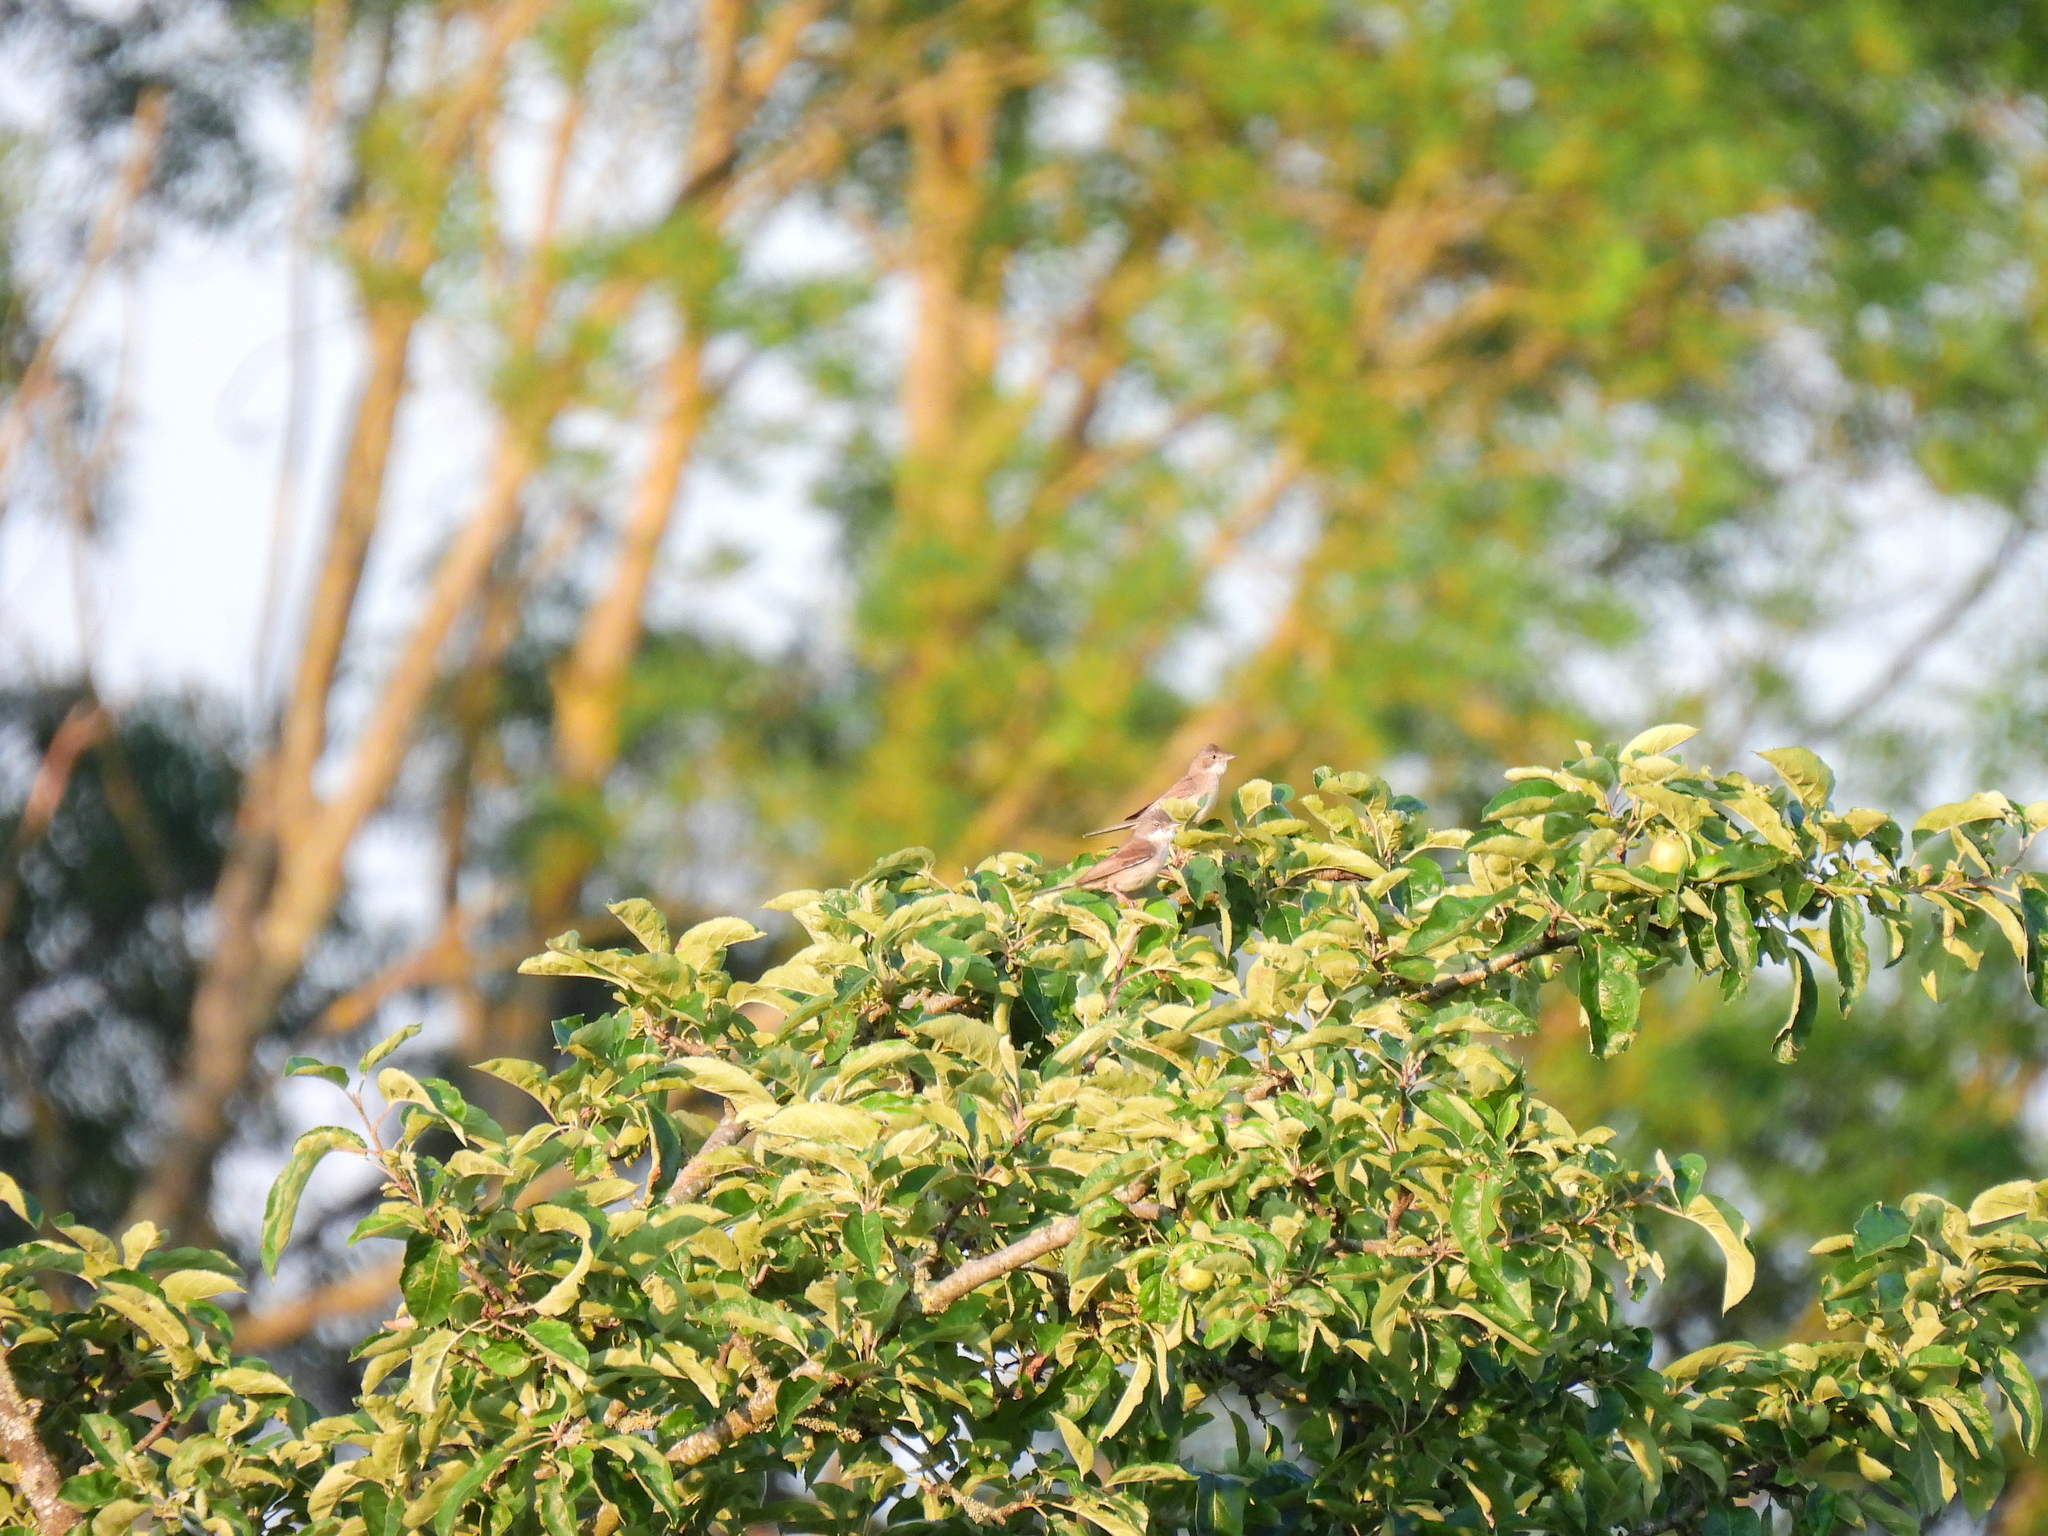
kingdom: Animalia
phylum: Chordata
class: Aves
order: Passeriformes
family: Sylviidae
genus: Sylvia
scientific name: Sylvia communis
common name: Common whitethroat
